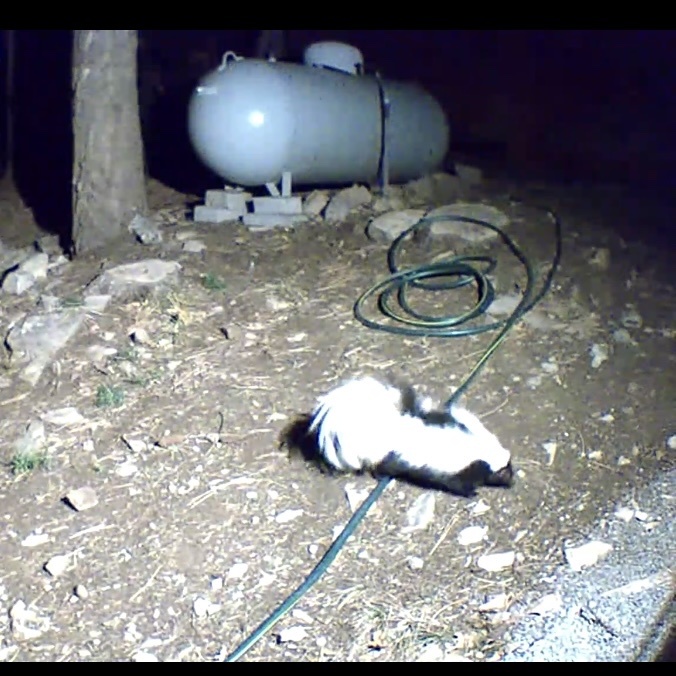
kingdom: Animalia
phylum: Chordata
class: Mammalia
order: Carnivora
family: Mephitidae
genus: Mephitis
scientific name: Mephitis mephitis
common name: Striped skunk
